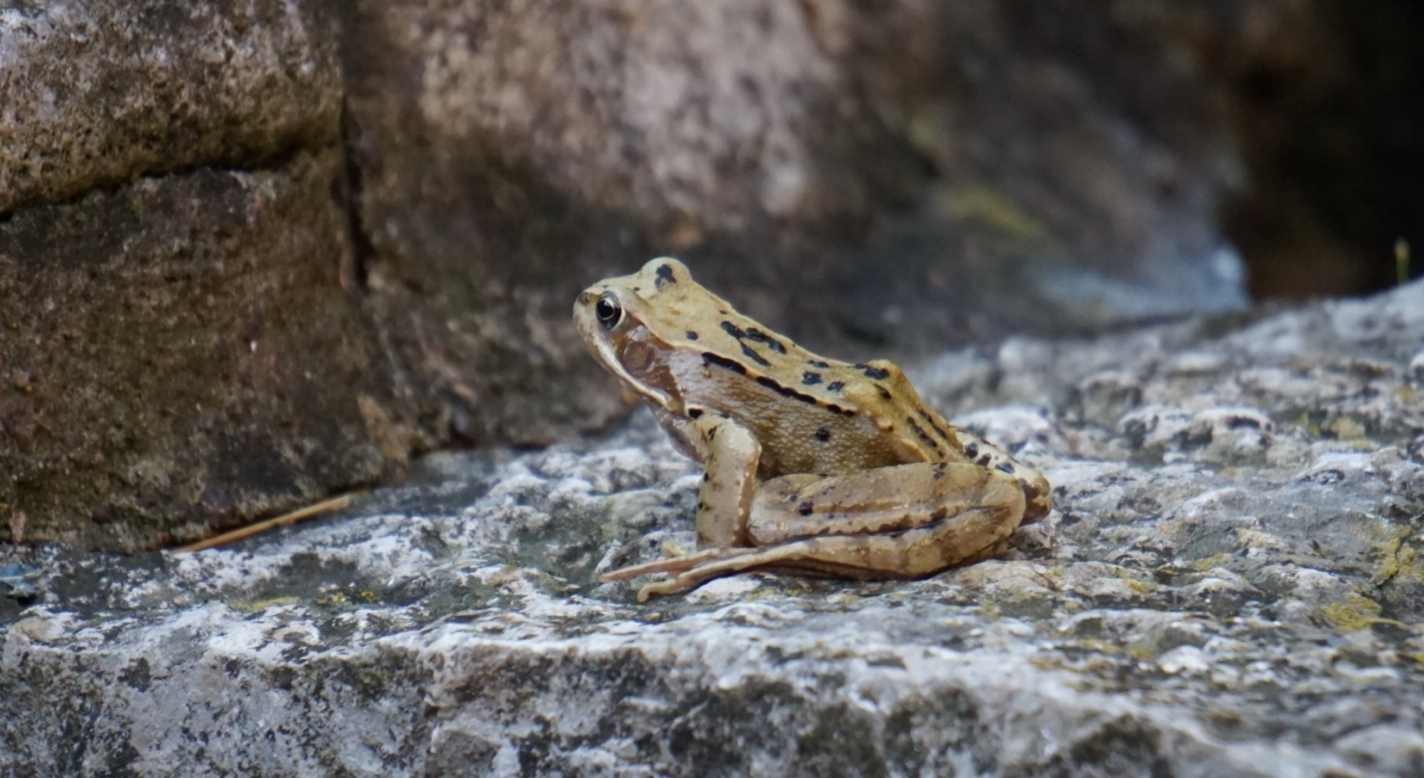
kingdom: Animalia
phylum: Chordata
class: Amphibia
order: Anura
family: Ranidae
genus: Rana
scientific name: Rana temporaria
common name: Common frog
